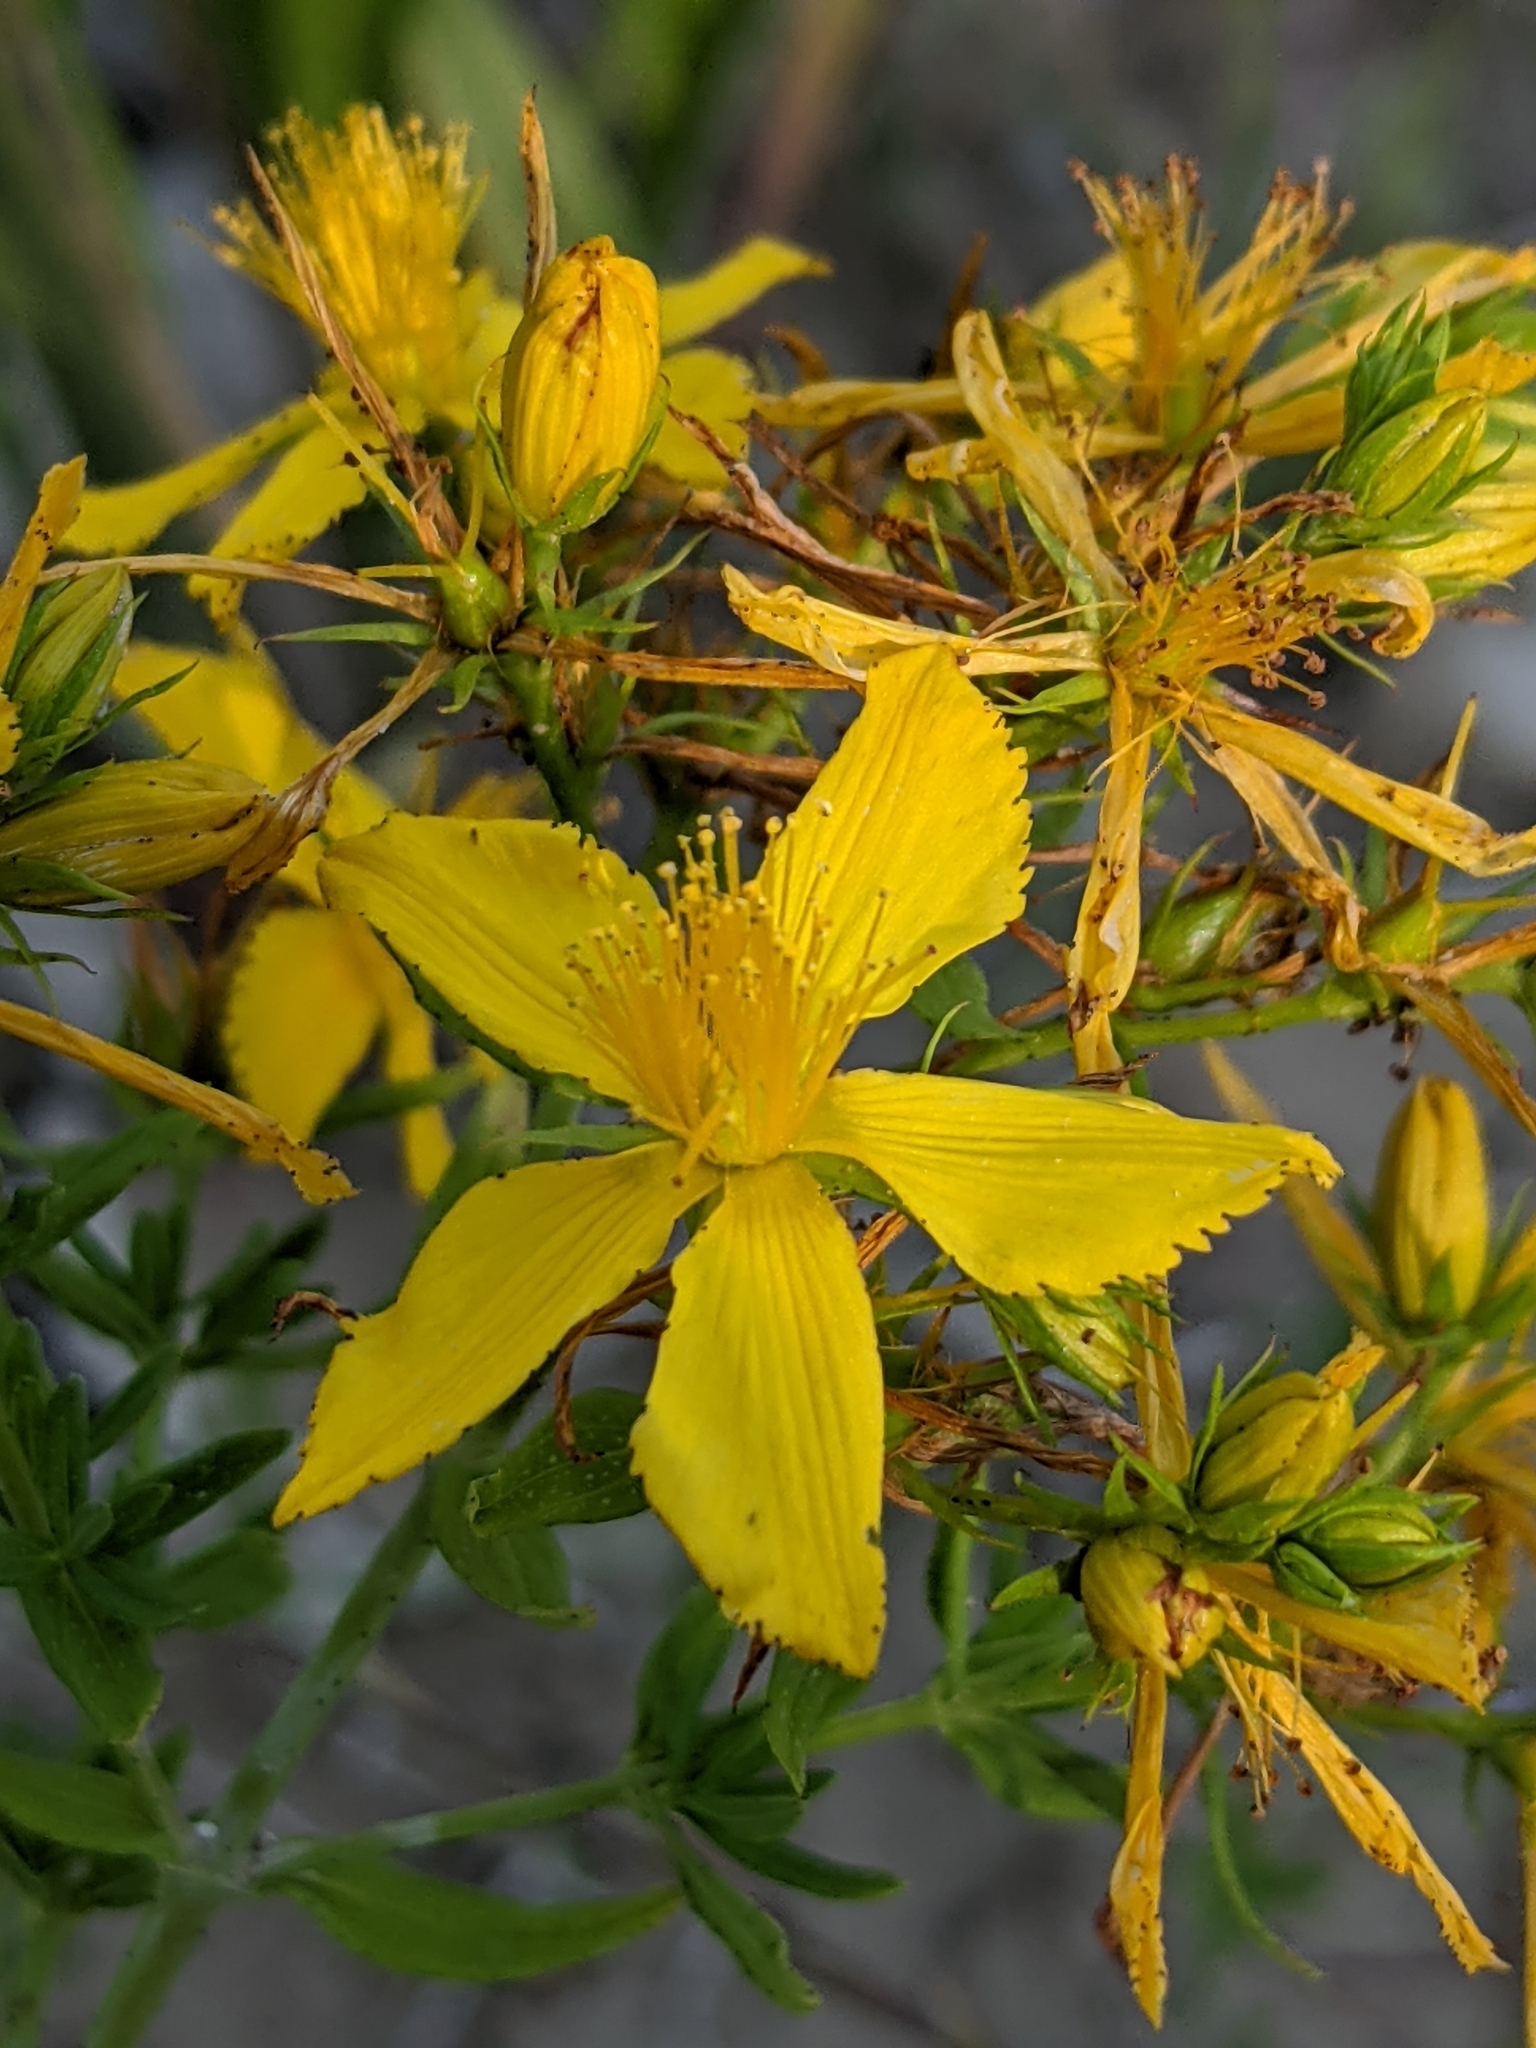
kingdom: Plantae
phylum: Tracheophyta
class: Magnoliopsida
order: Malpighiales
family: Hypericaceae
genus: Hypericum
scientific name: Hypericum perforatum
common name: Common st. johnswort
